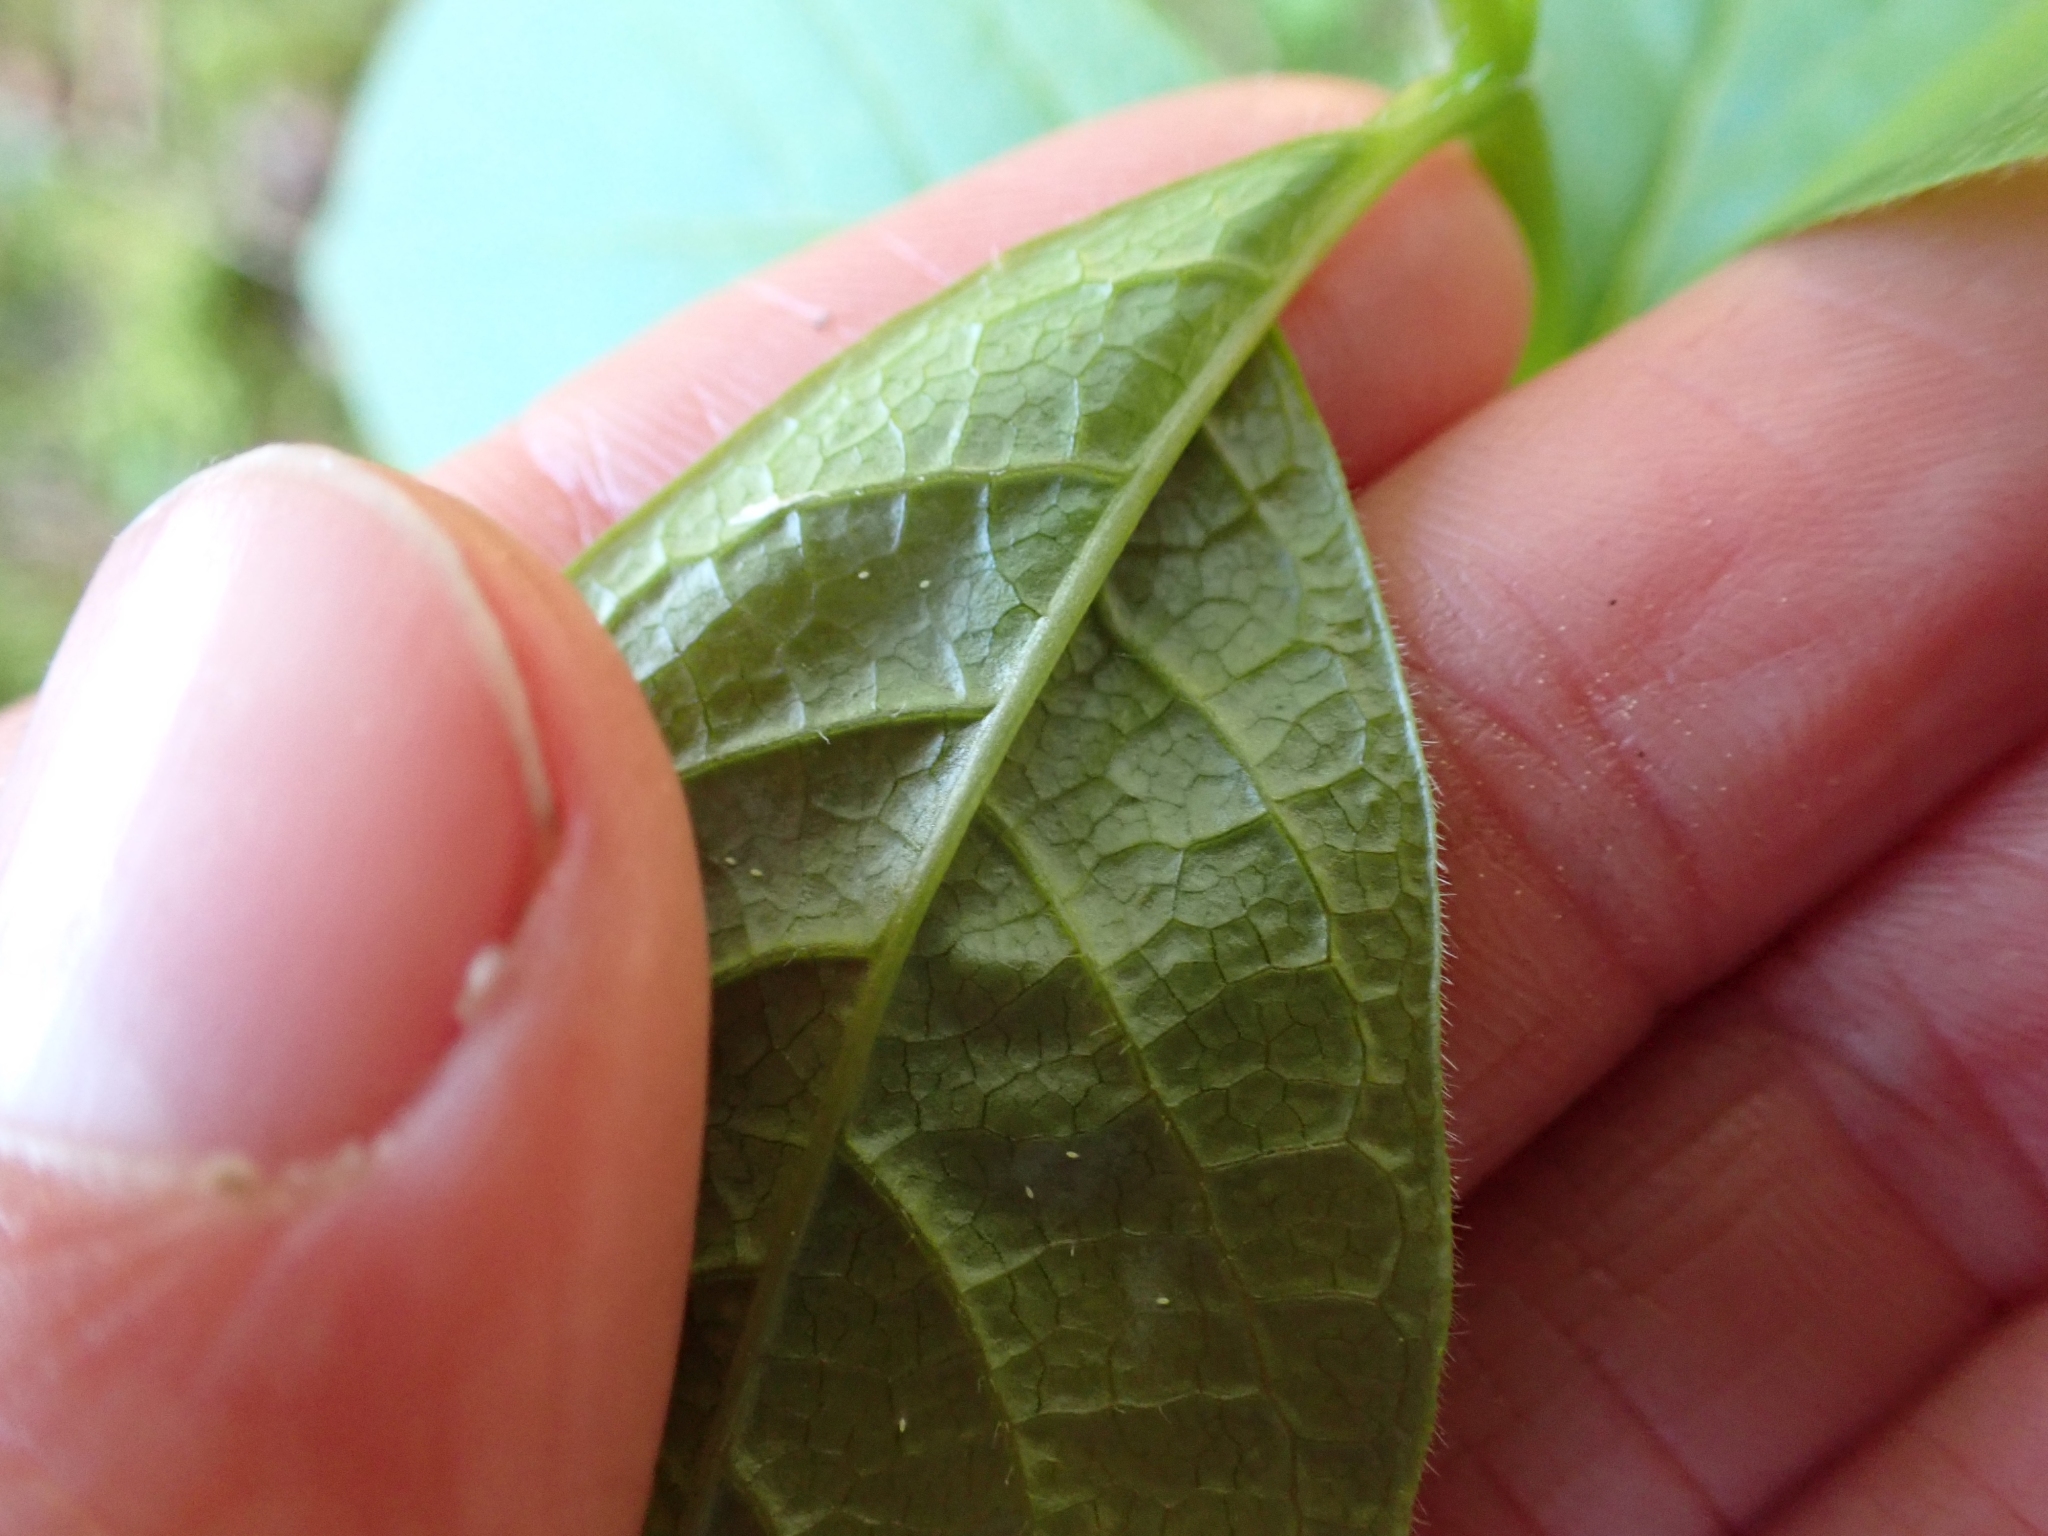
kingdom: Plantae
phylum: Tracheophyta
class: Magnoliopsida
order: Dipsacales
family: Caprifoliaceae
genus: Lonicera
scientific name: Lonicera involucrata
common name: Californian honeysuckle
